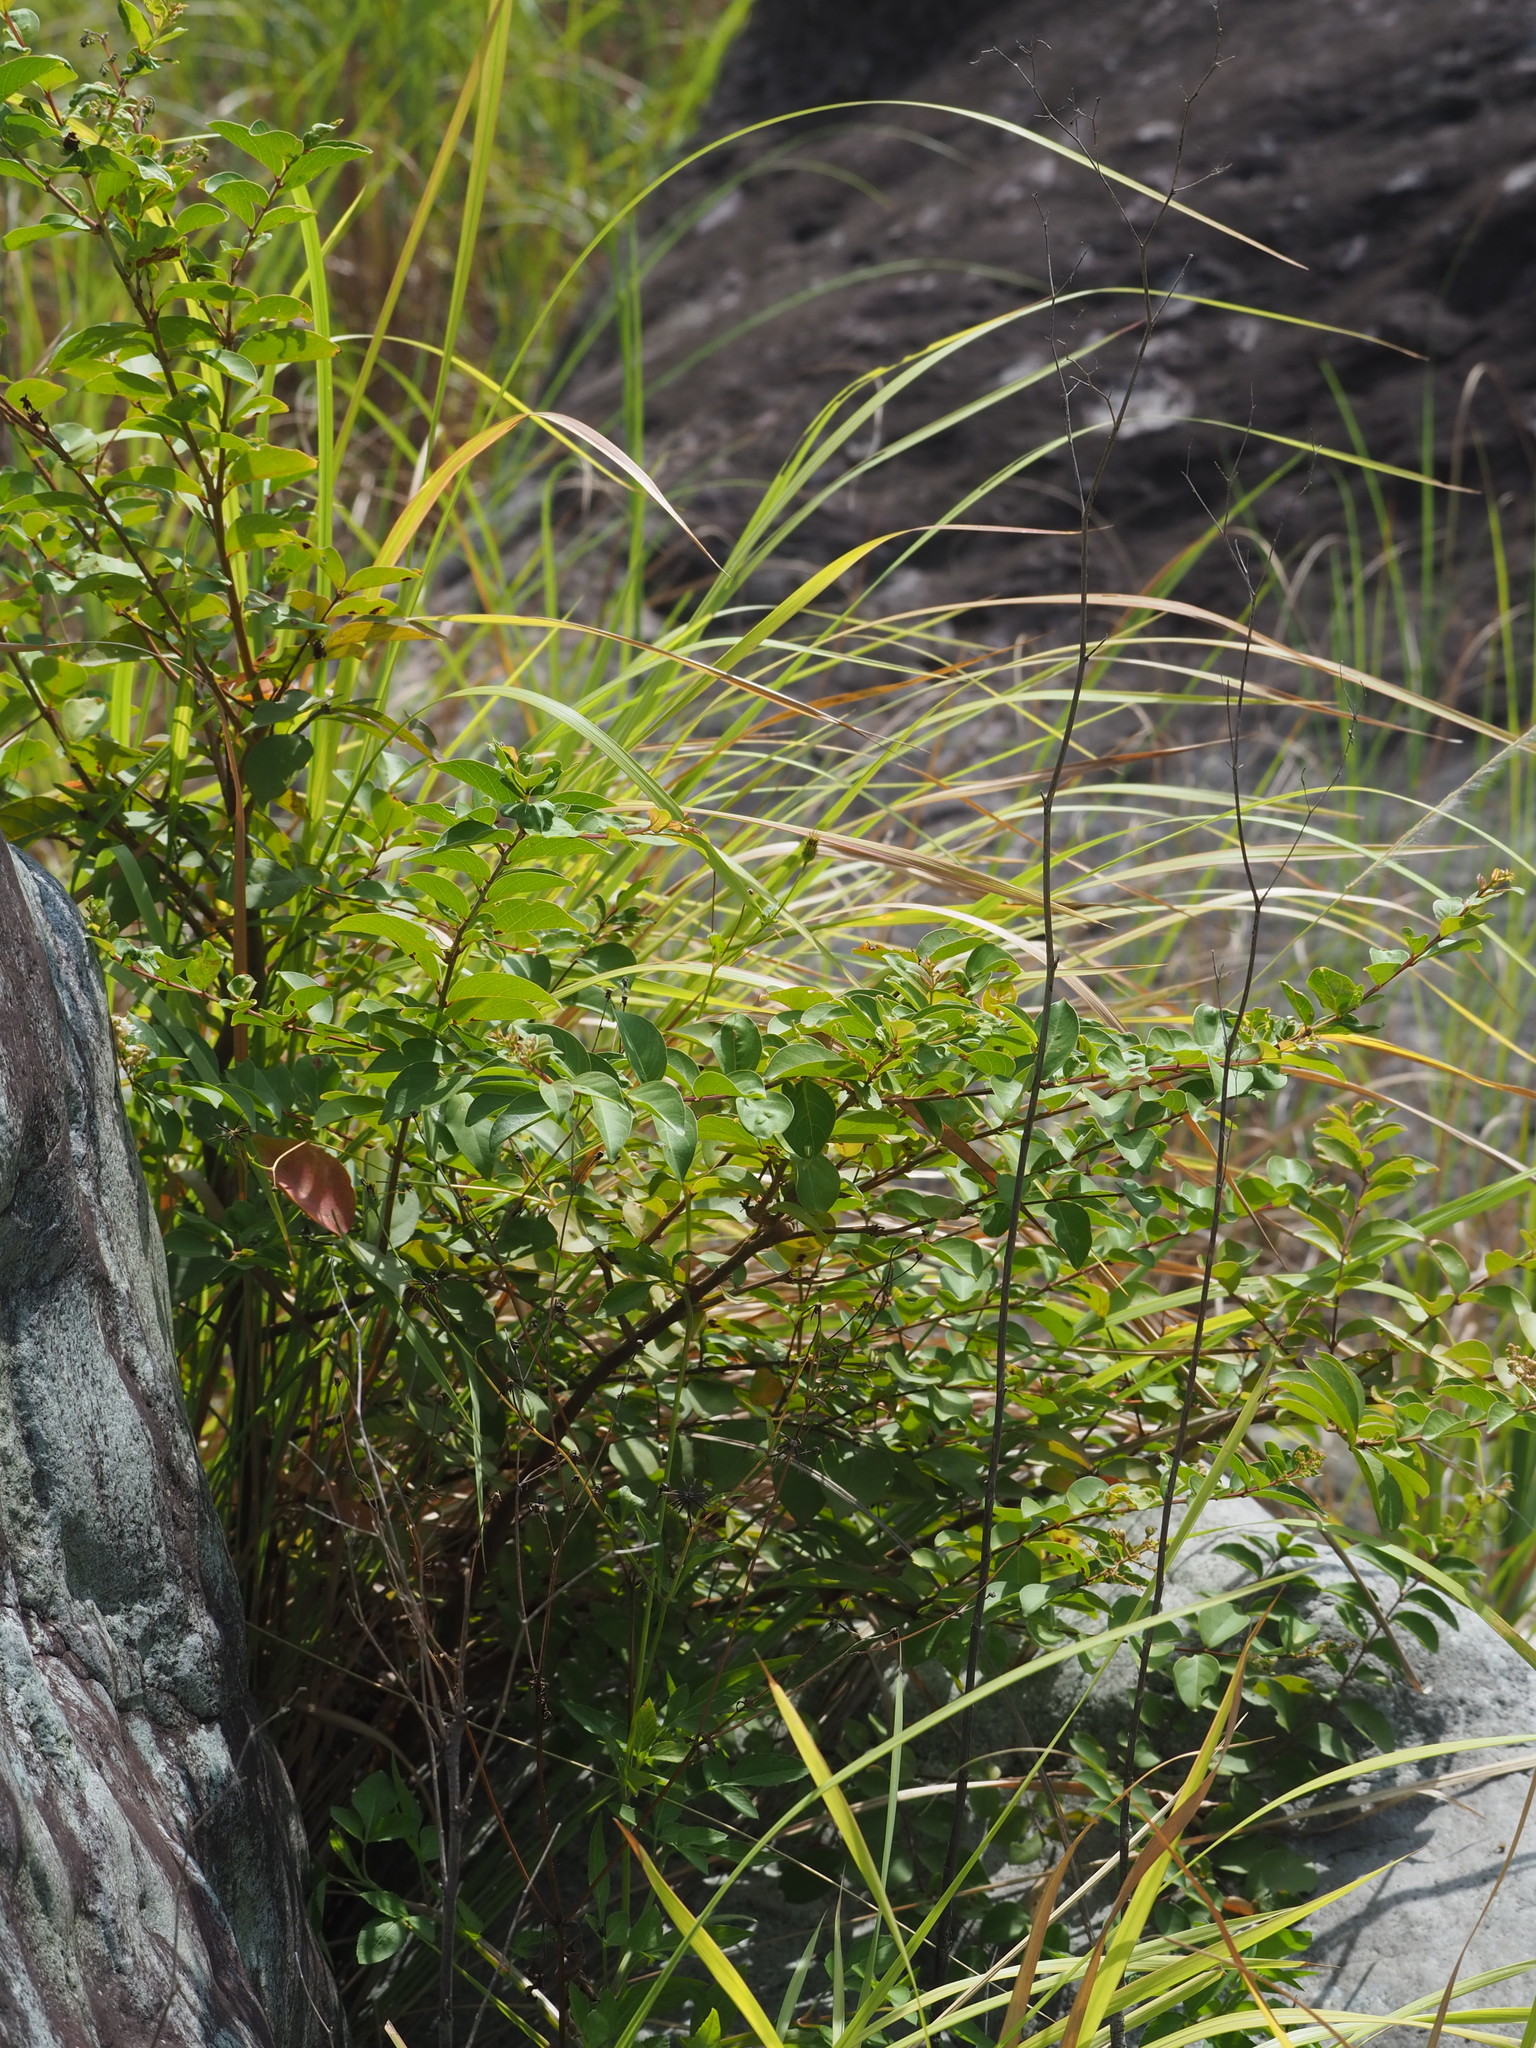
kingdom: Plantae
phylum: Tracheophyta
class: Magnoliopsida
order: Myrtales
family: Lythraceae
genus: Lagerstroemia
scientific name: Lagerstroemia subcostata
